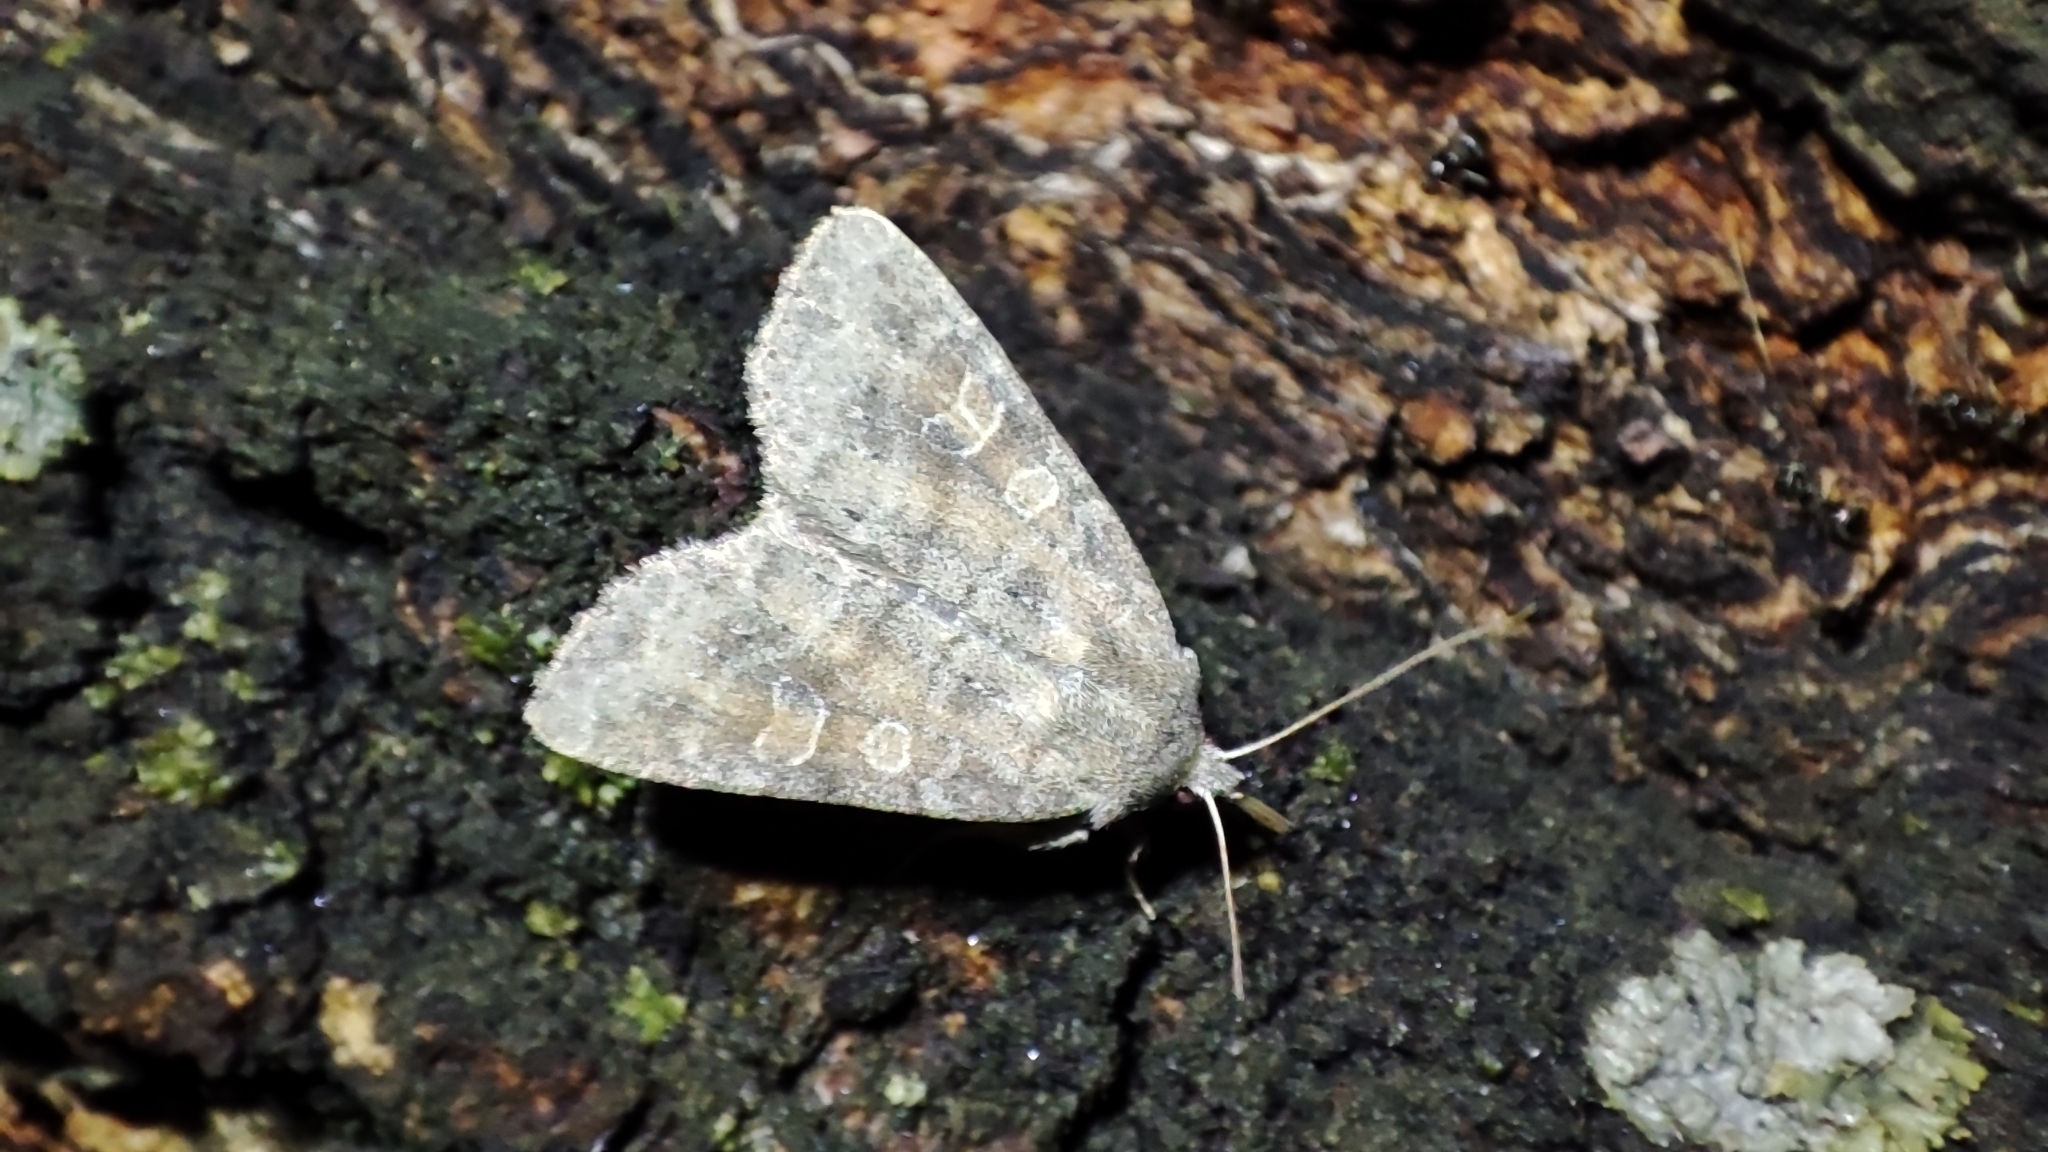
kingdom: Animalia
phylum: Arthropoda
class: Insecta
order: Lepidoptera
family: Noctuidae
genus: Parastichtis
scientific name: Parastichtis suspecta
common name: Suspected
